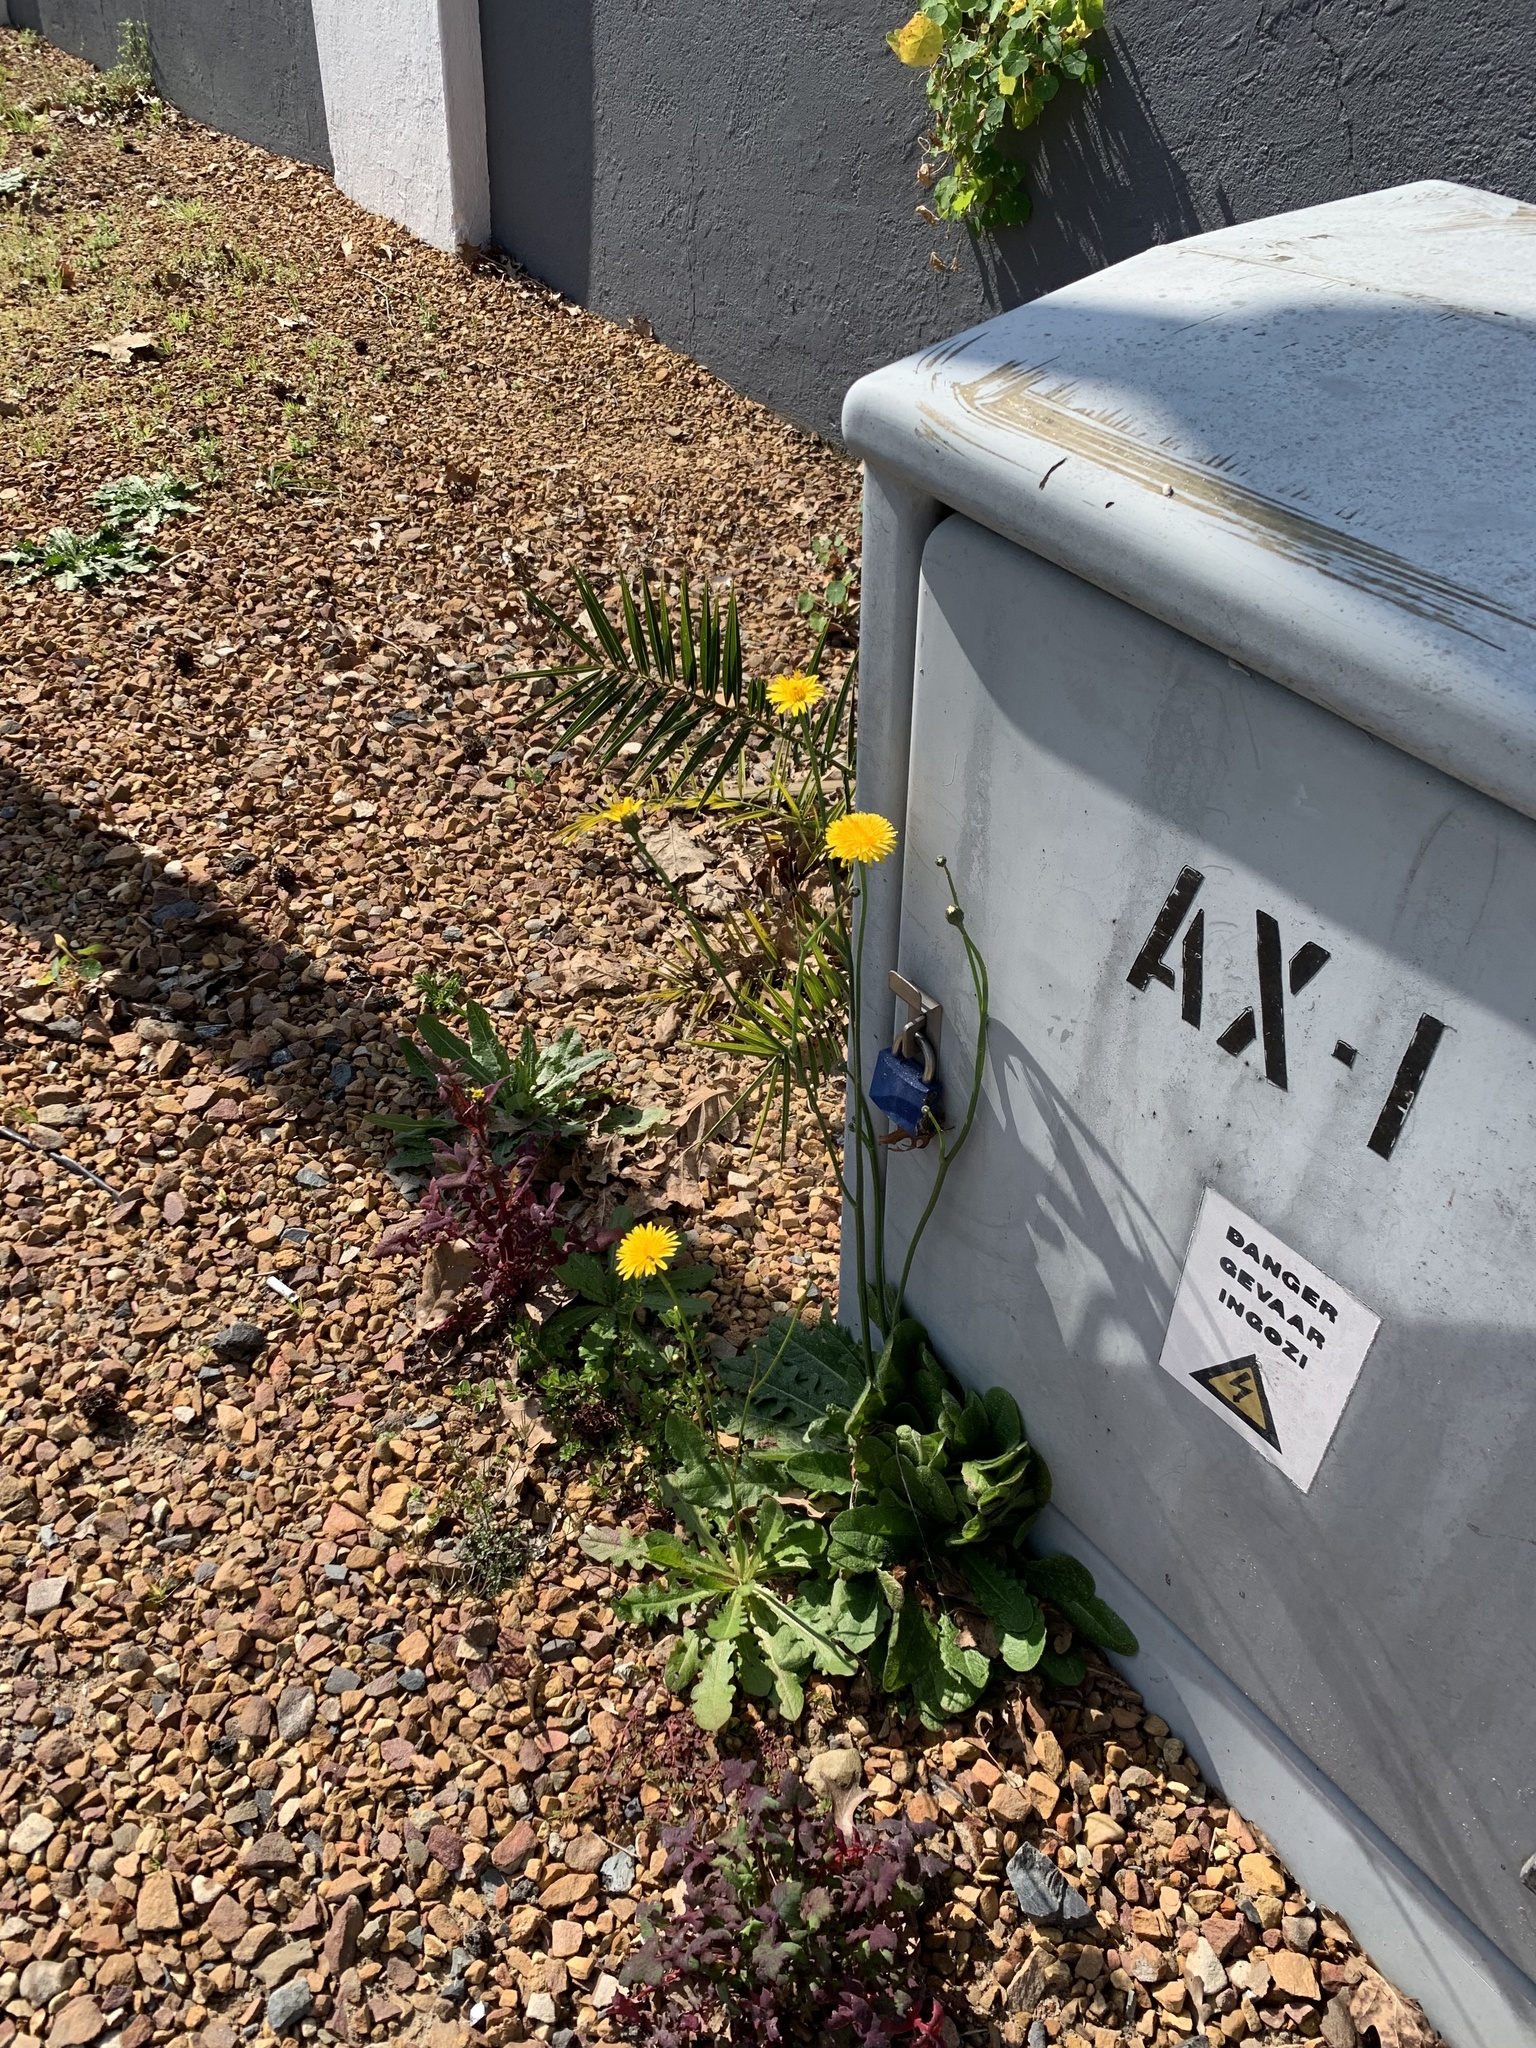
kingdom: Plantae
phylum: Tracheophyta
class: Magnoliopsida
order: Asterales
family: Asteraceae
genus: Hypochaeris
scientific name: Hypochaeris radicata
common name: Flatweed
